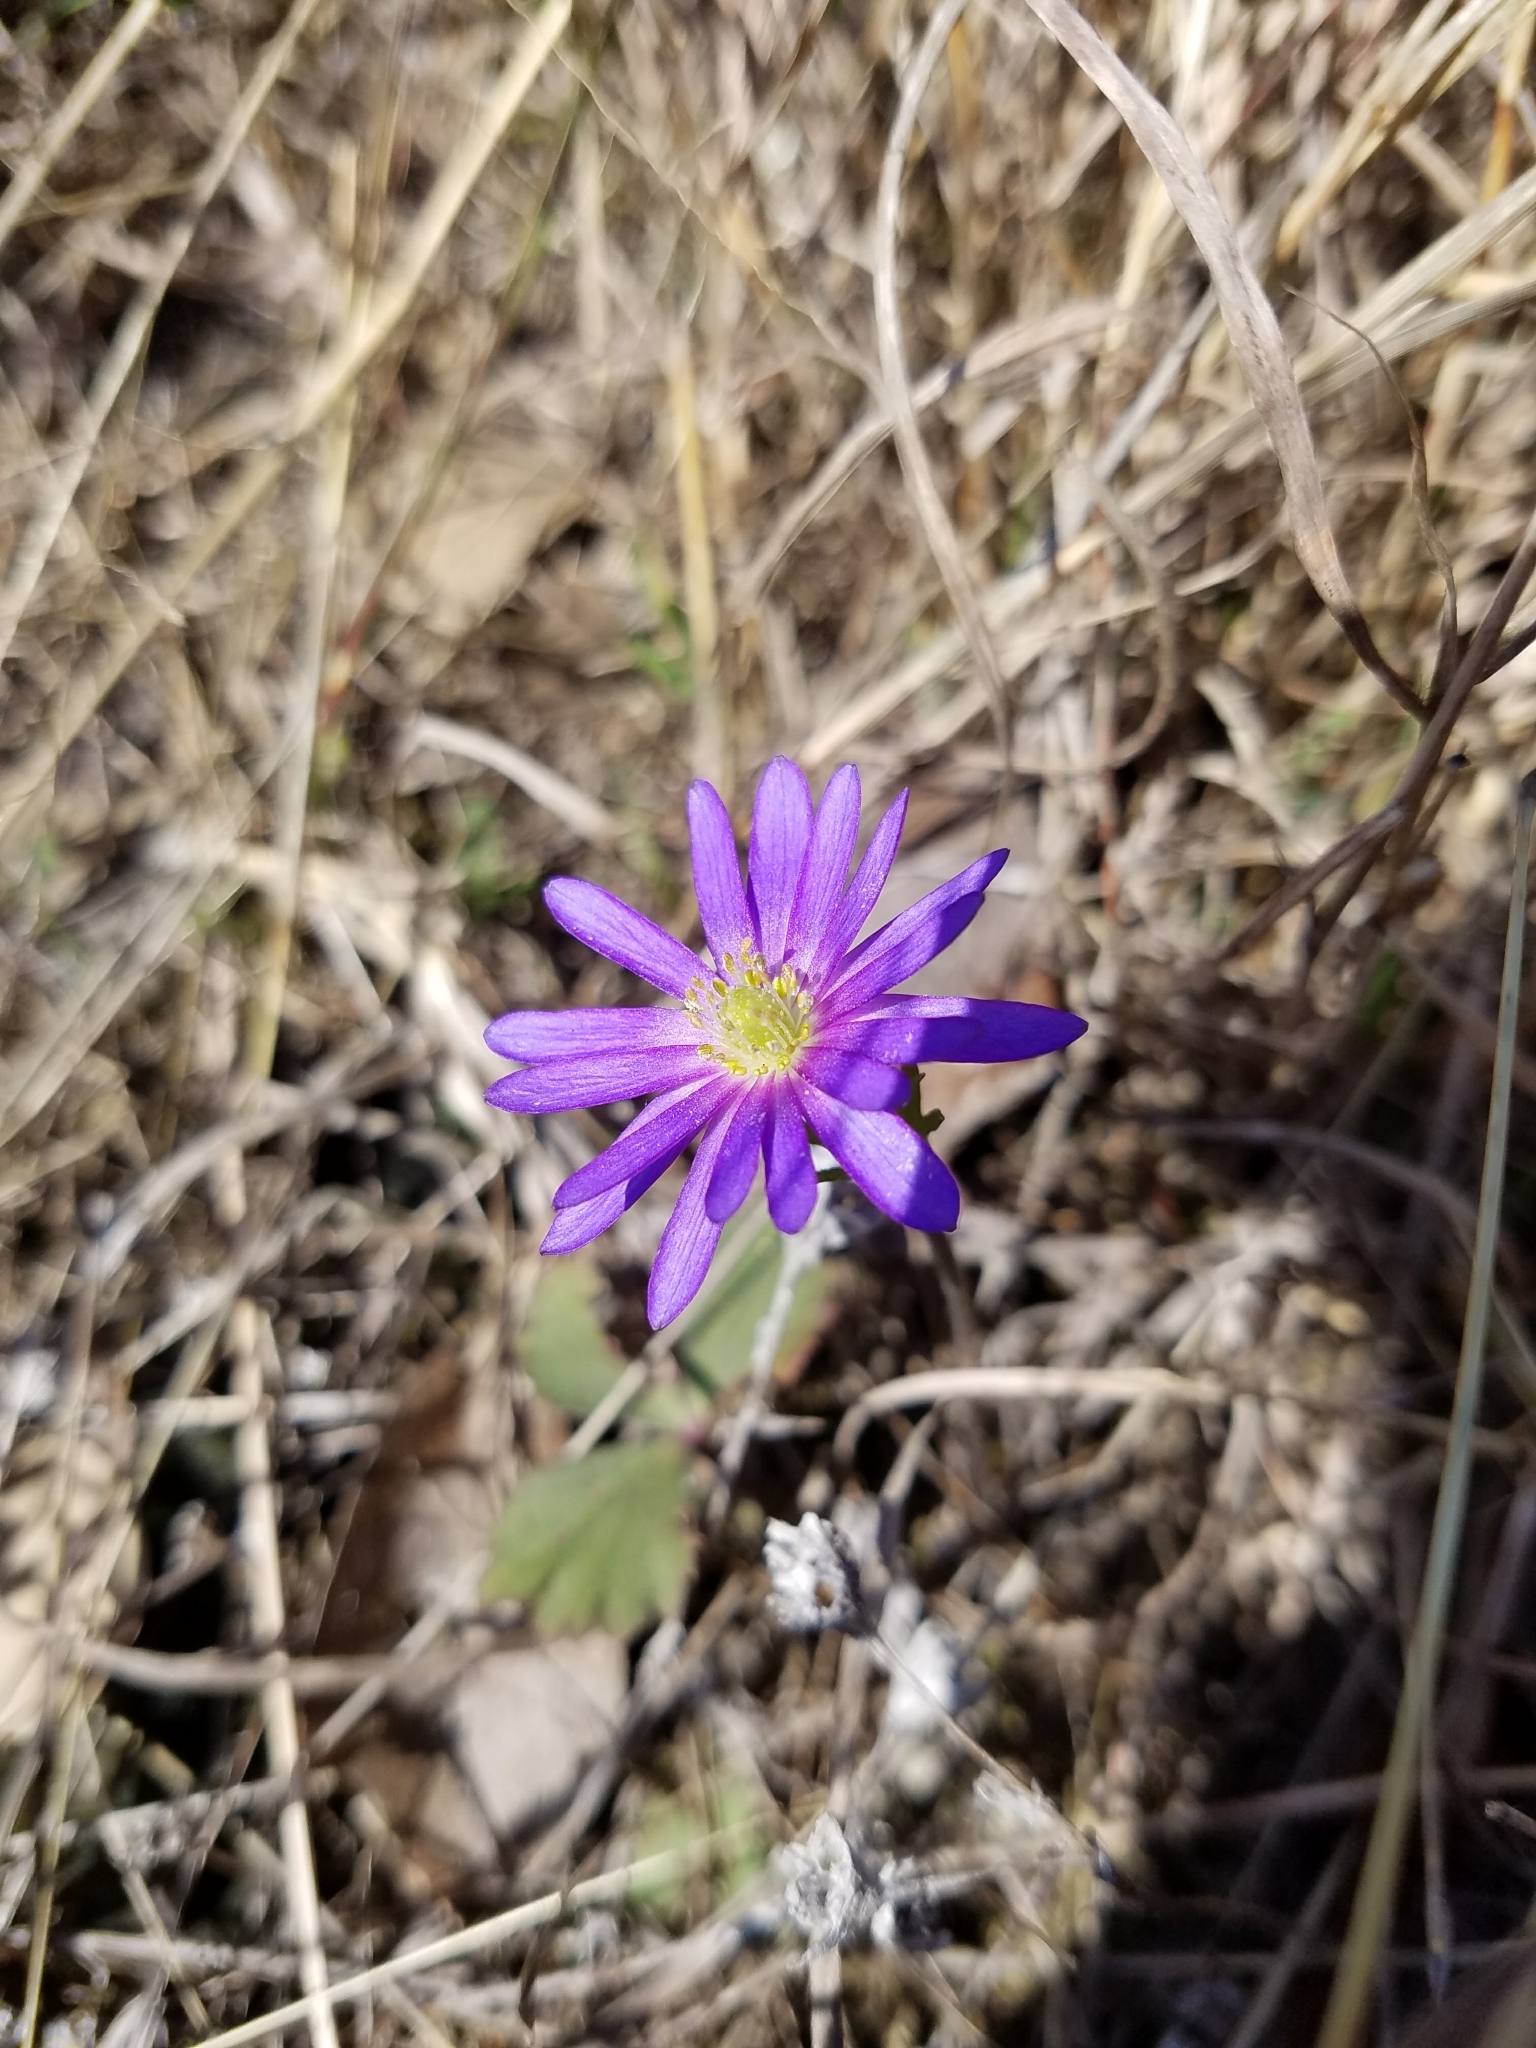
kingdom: Plantae
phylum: Tracheophyta
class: Magnoliopsida
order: Ranunculales
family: Ranunculaceae
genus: Anemone
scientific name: Anemone berlandieri
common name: Ten-petal anemone
